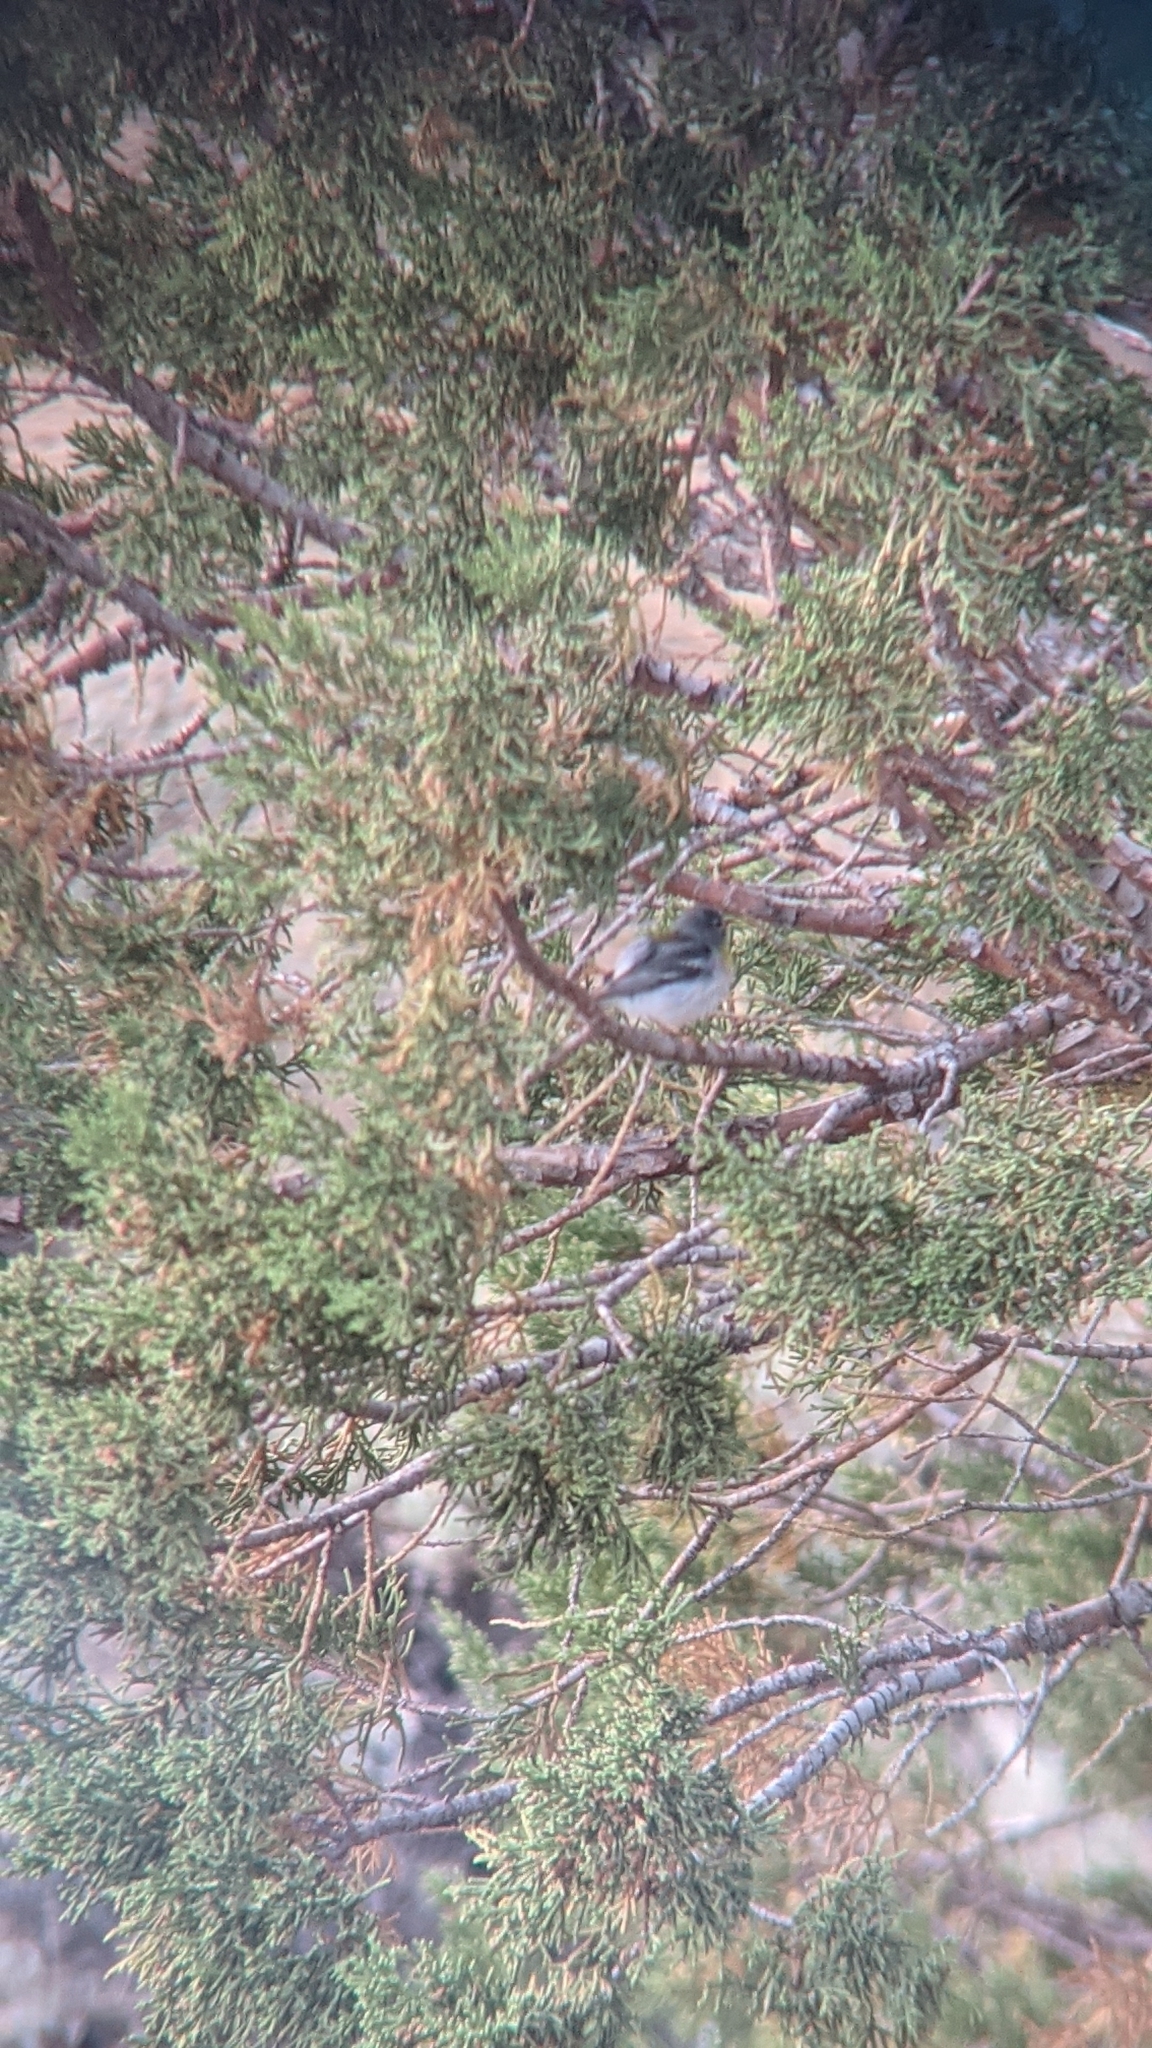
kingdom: Animalia
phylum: Chordata
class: Aves
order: Passeriformes
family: Parulidae
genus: Setophaga
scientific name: Setophaga americana
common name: Northern parula
